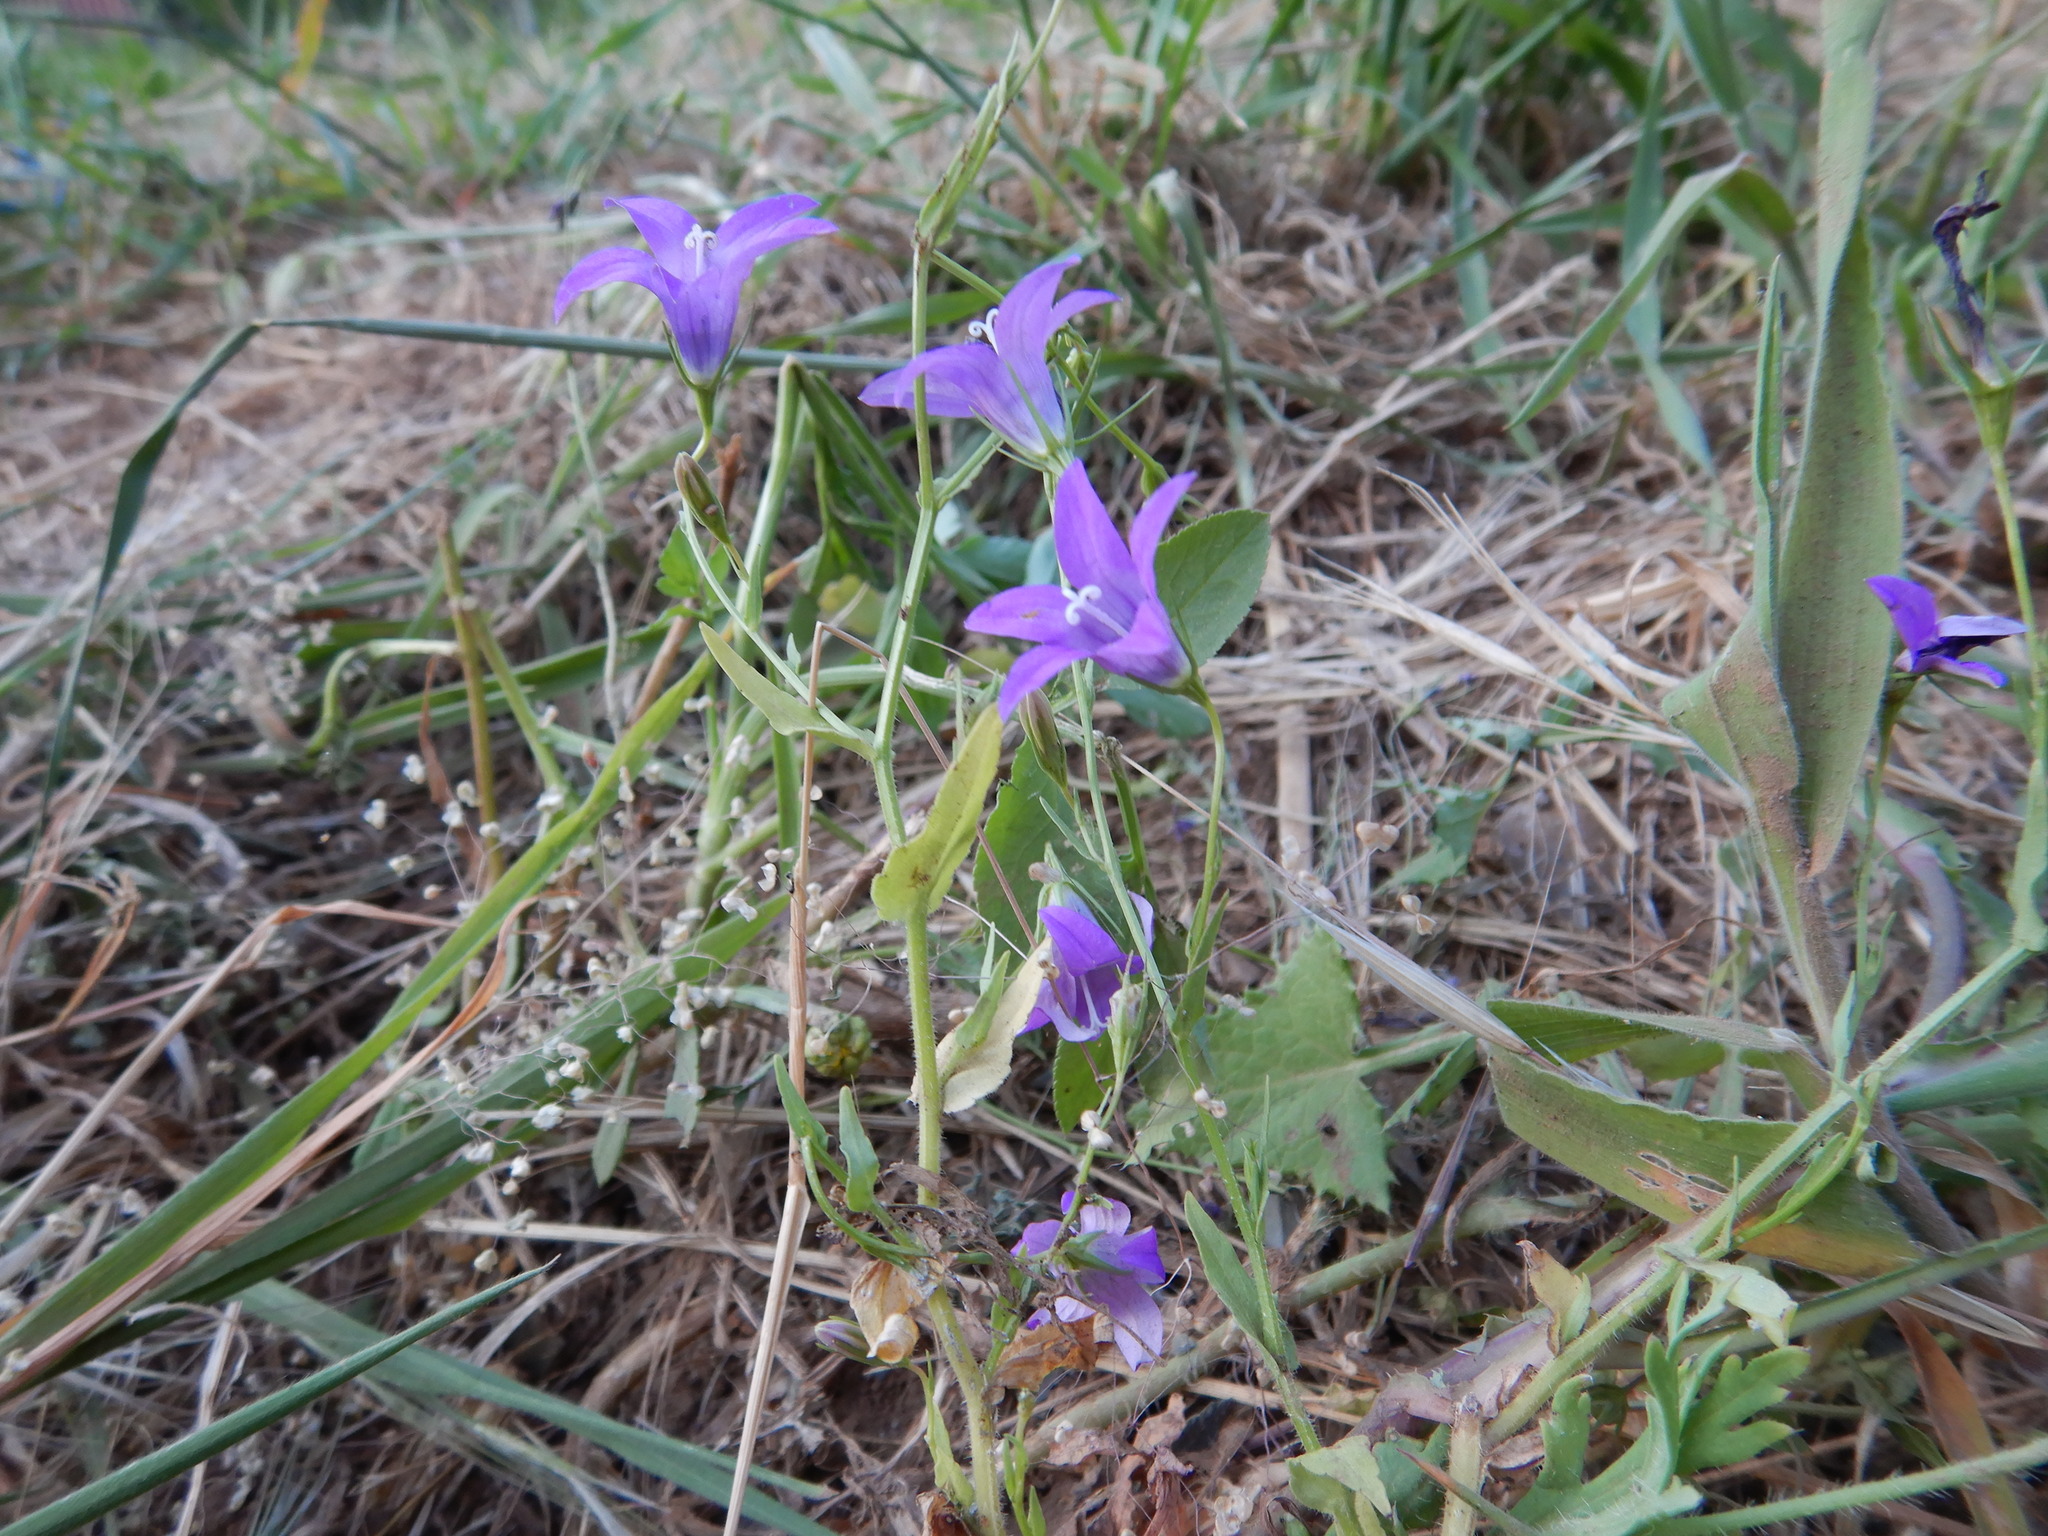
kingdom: Plantae
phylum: Tracheophyta
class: Magnoliopsida
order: Asterales
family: Campanulaceae
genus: Campanula
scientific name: Campanula lusitanica
